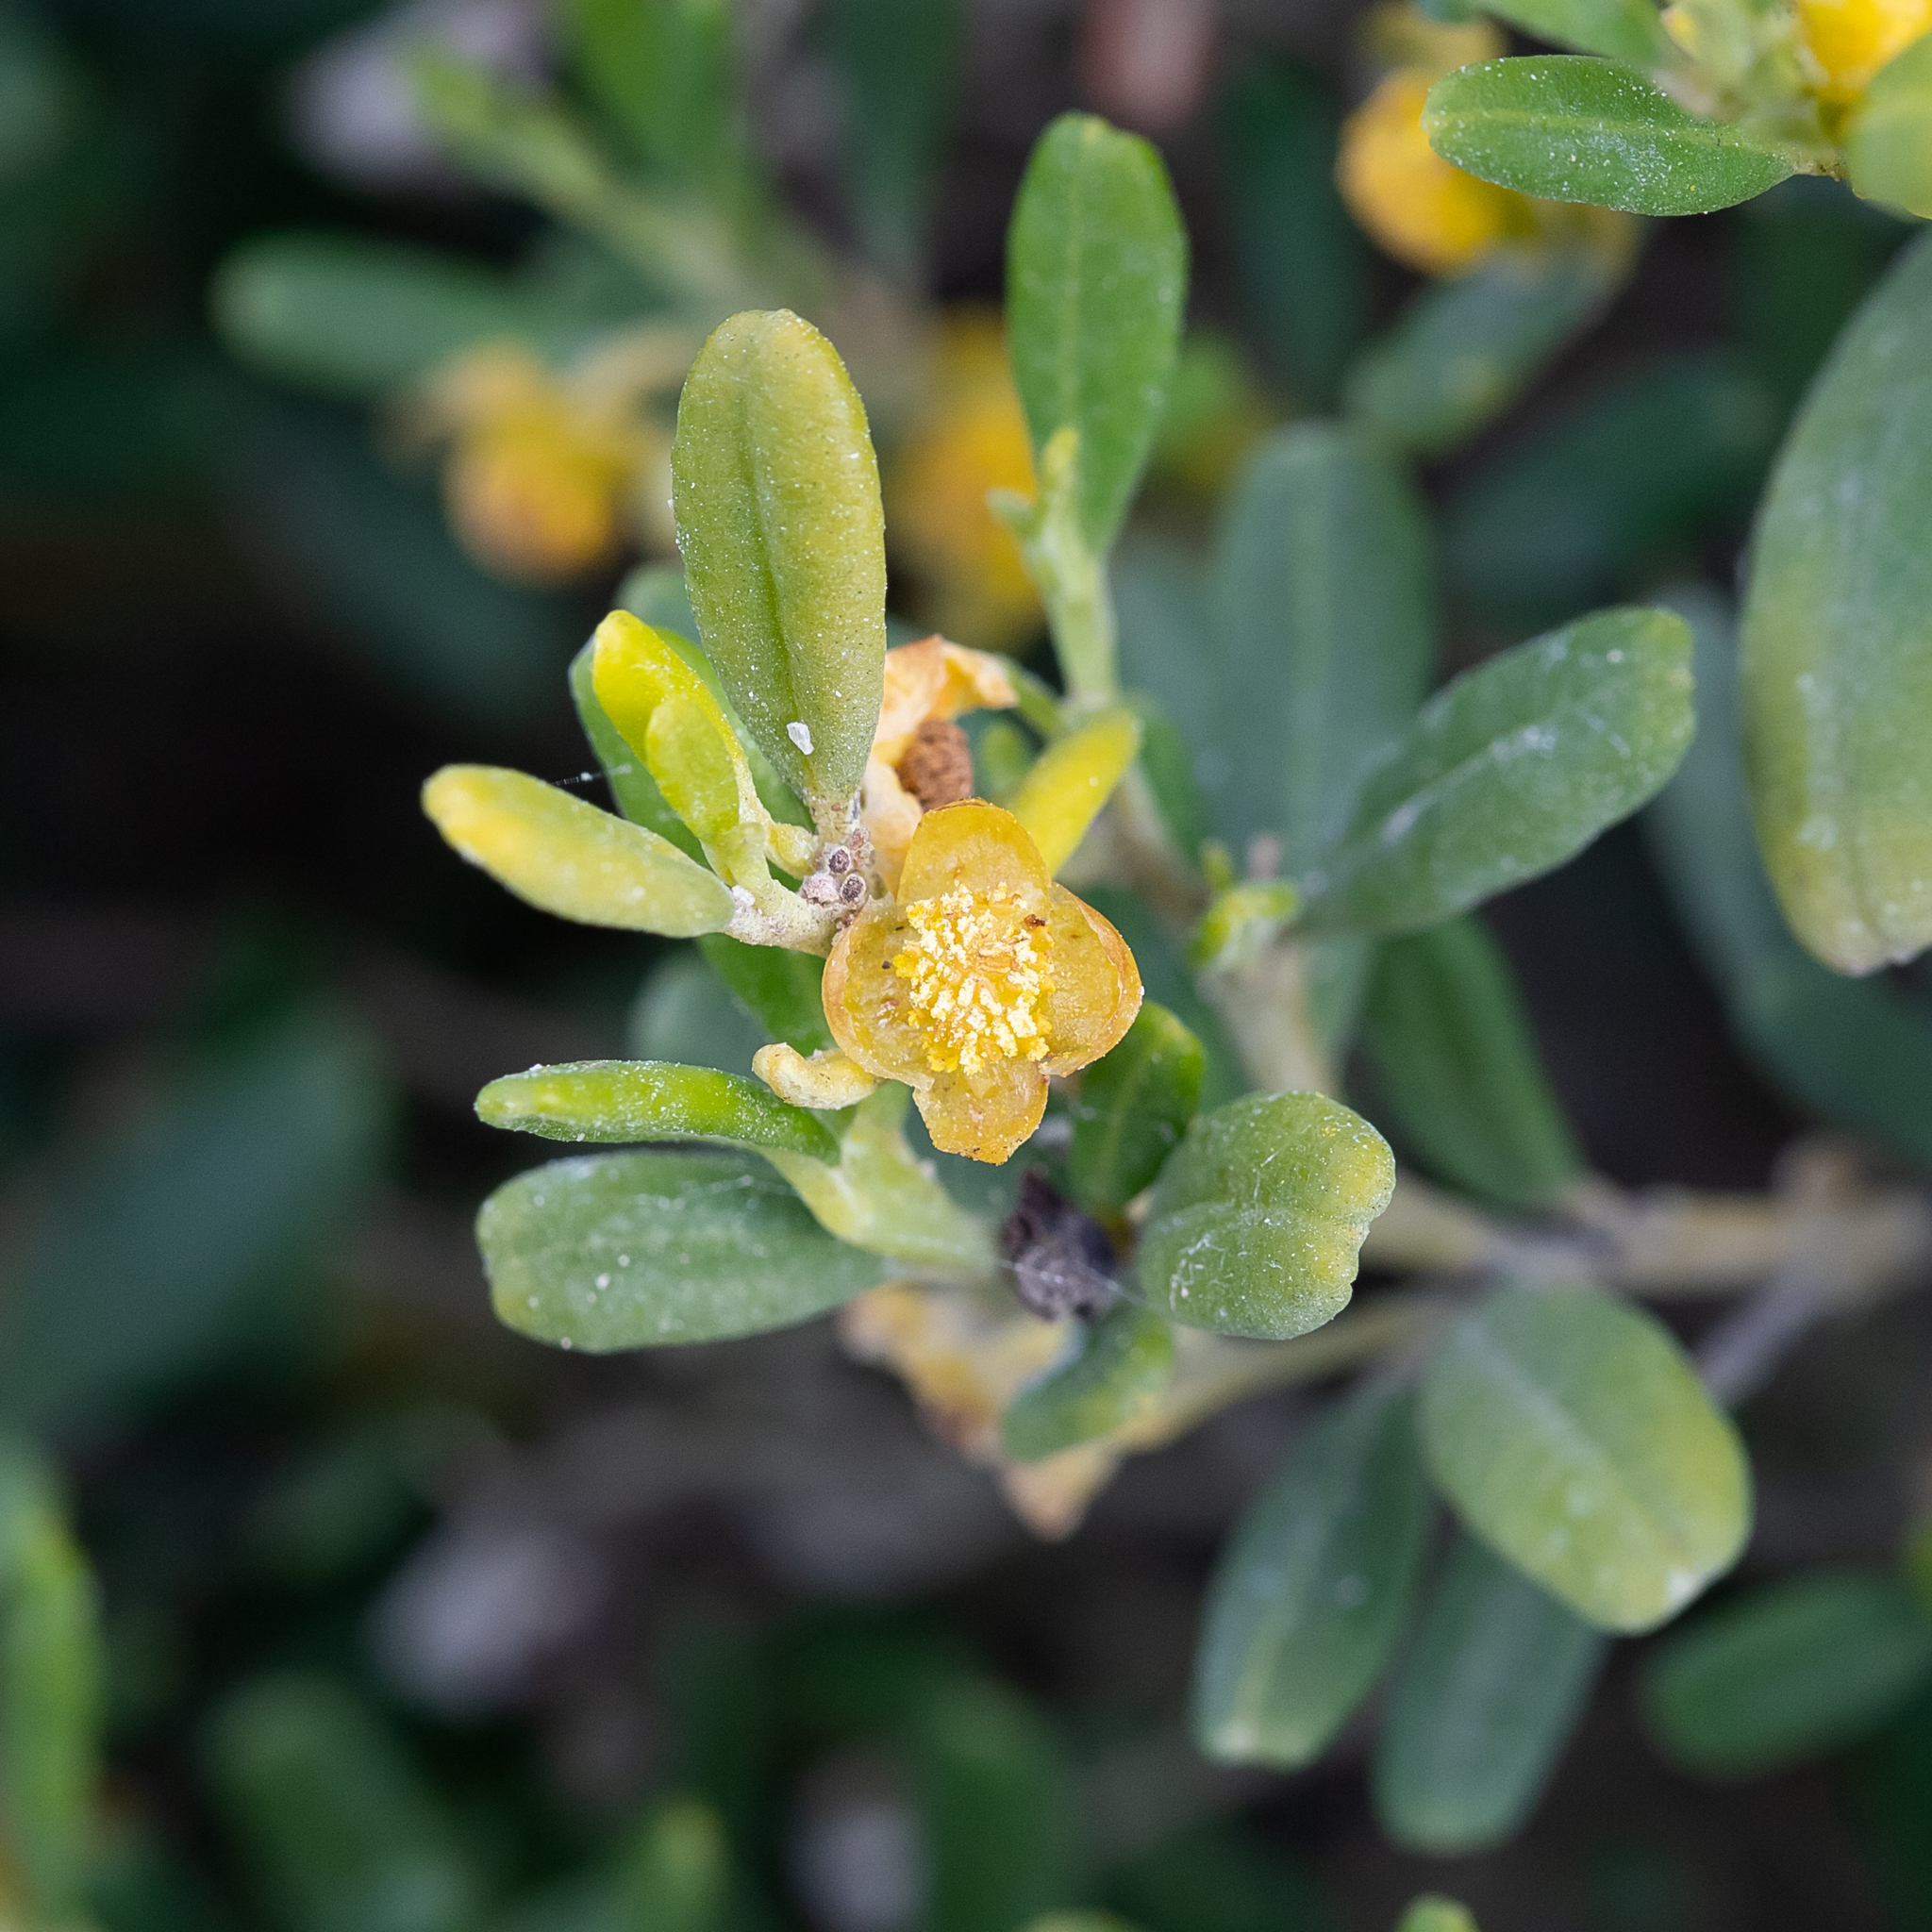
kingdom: Plantae
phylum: Tracheophyta
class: Magnoliopsida
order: Malpighiales
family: Euphorbiaceae
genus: Beyeria
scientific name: Beyeria lechenaultii
